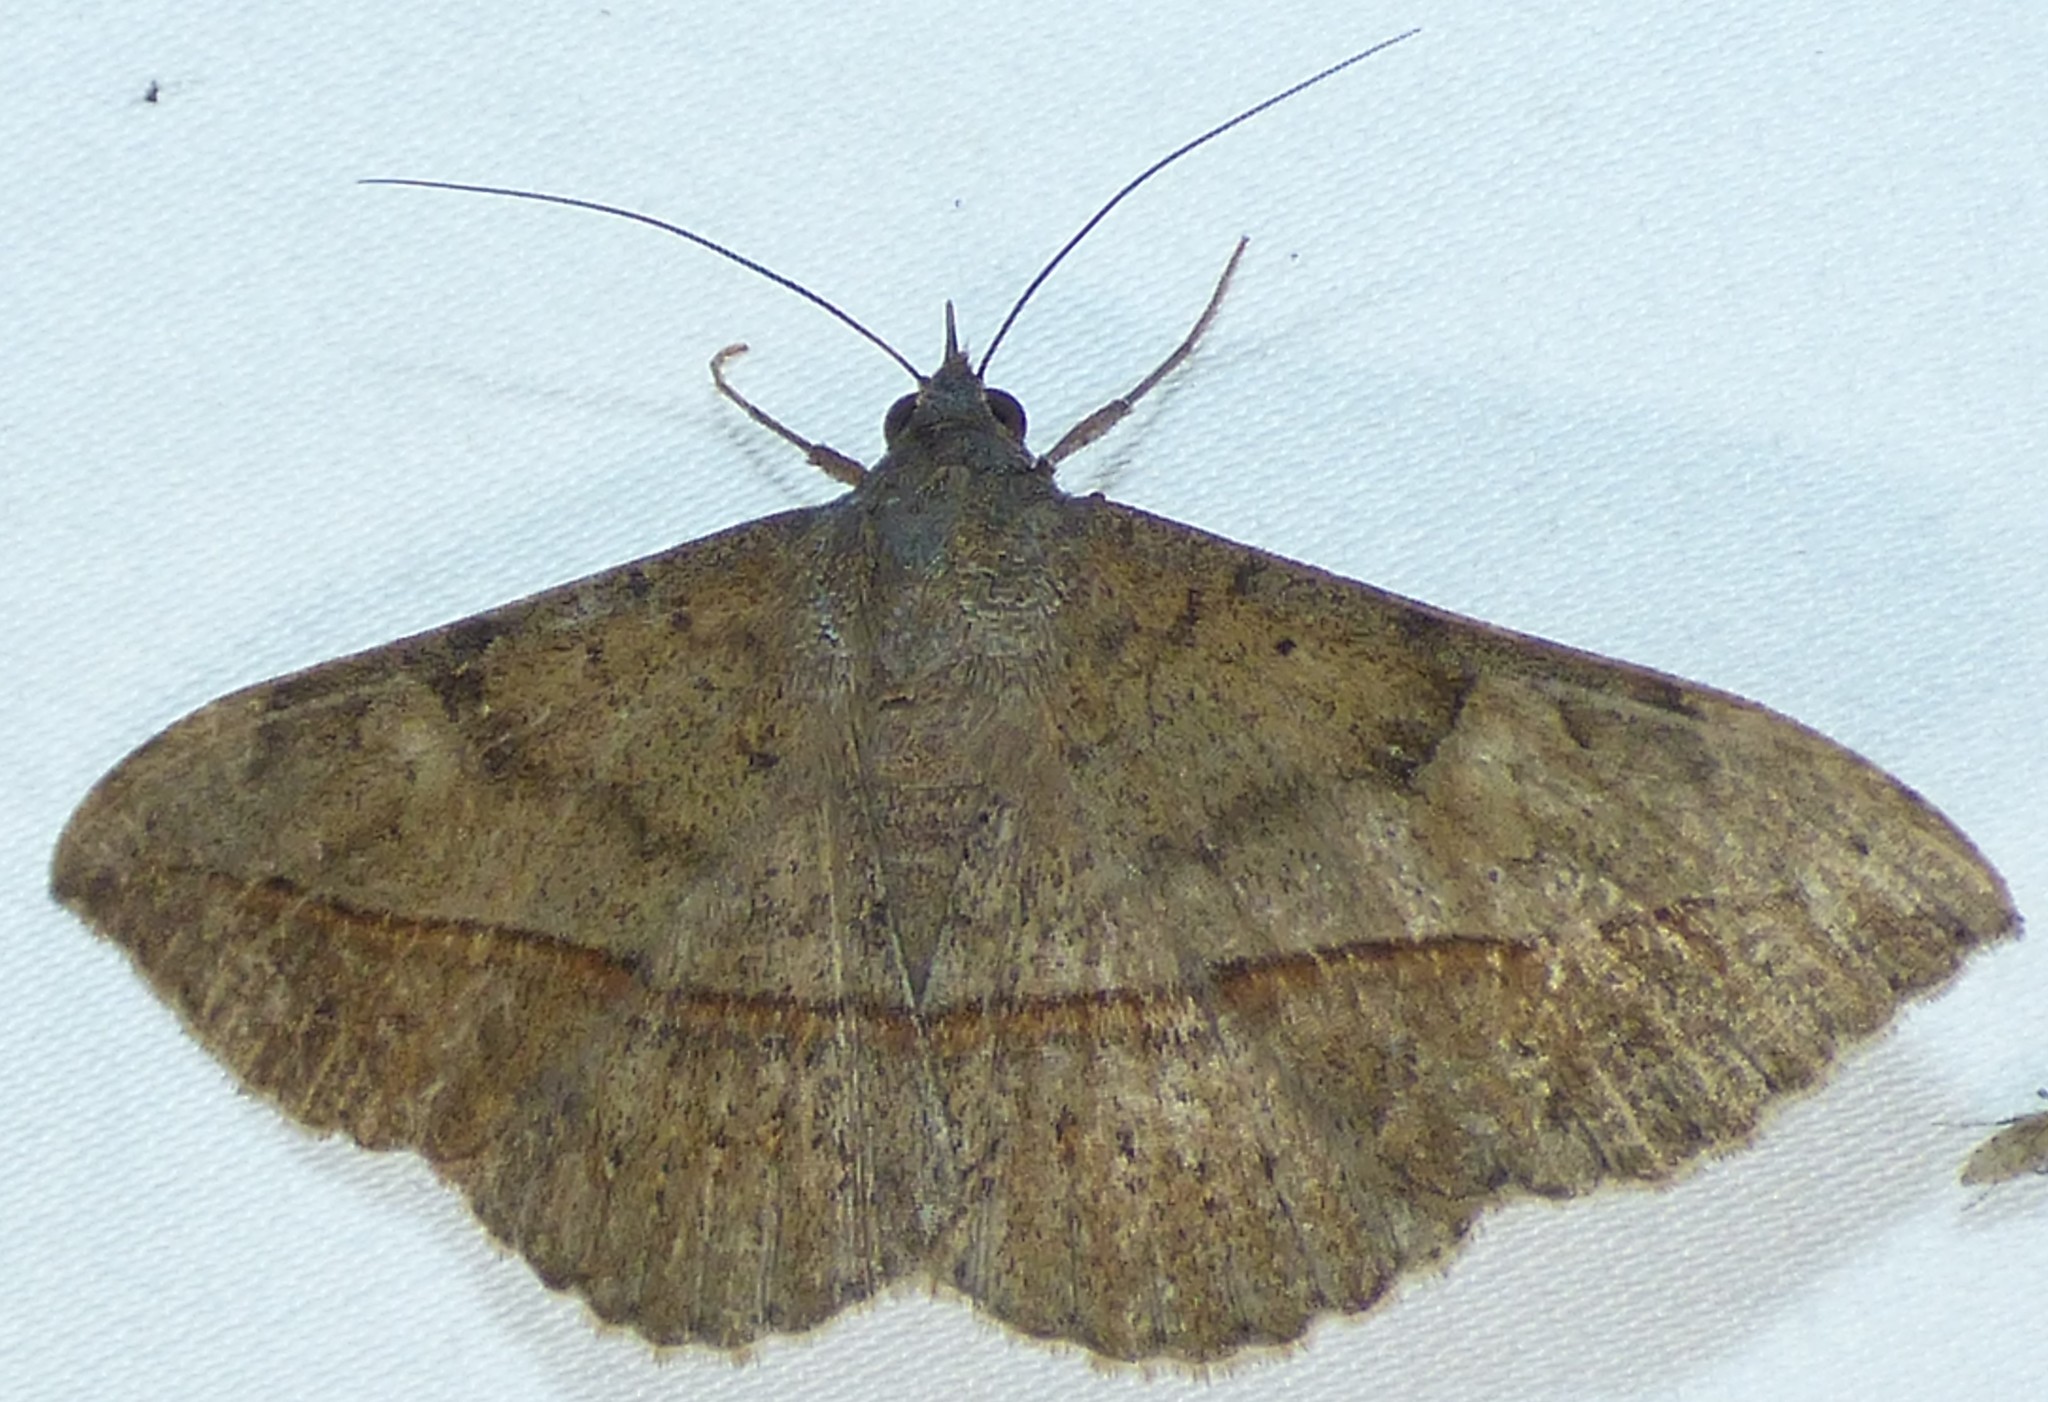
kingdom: Animalia
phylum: Arthropoda
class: Insecta
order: Lepidoptera
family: Erebidae
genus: Anticarsia
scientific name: Anticarsia gemmatalis
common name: Cutworm moth
